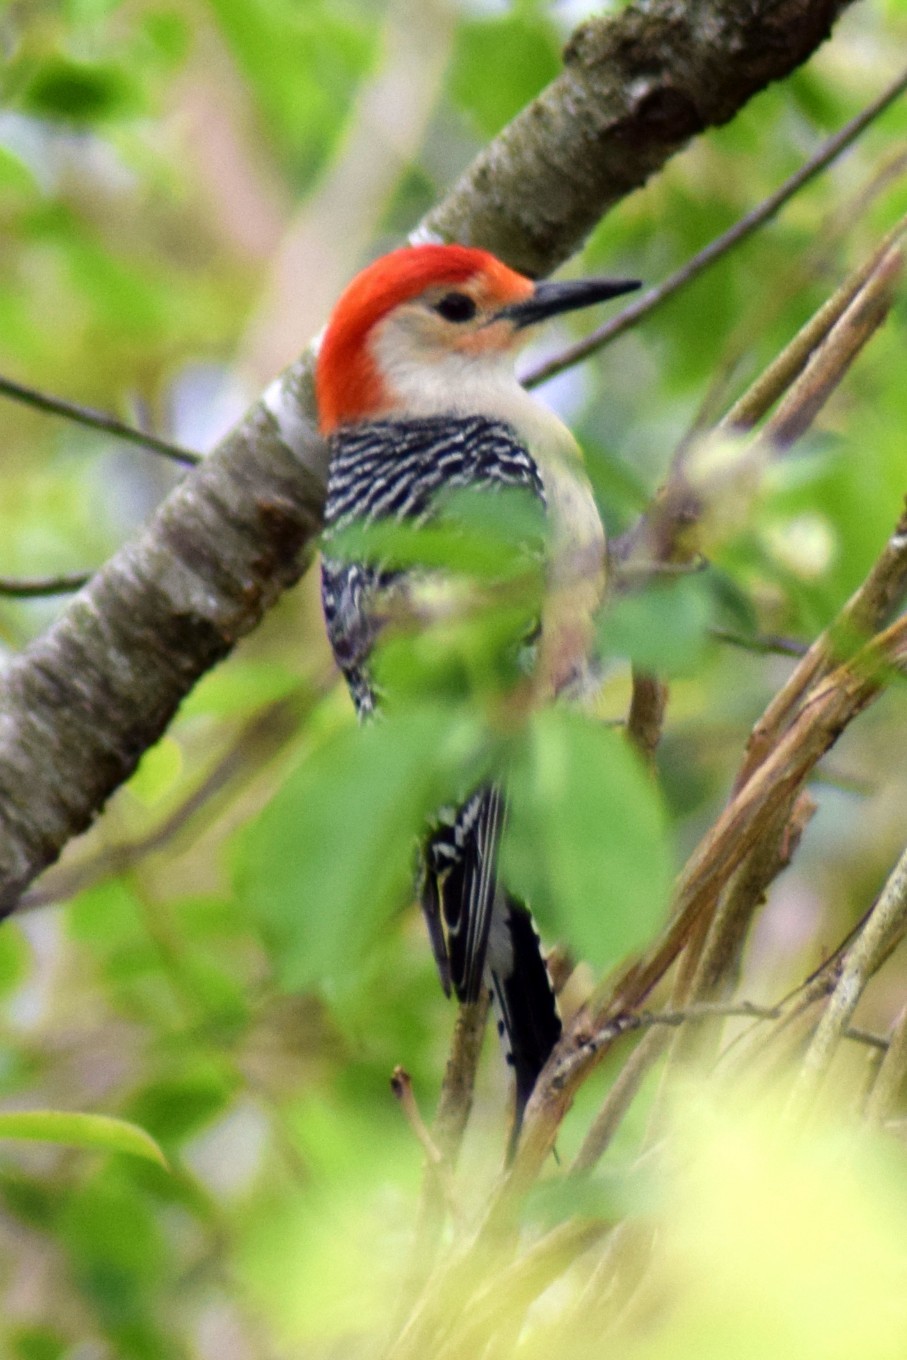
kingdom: Animalia
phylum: Chordata
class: Aves
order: Piciformes
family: Picidae
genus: Melanerpes
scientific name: Melanerpes carolinus
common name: Red-bellied woodpecker
